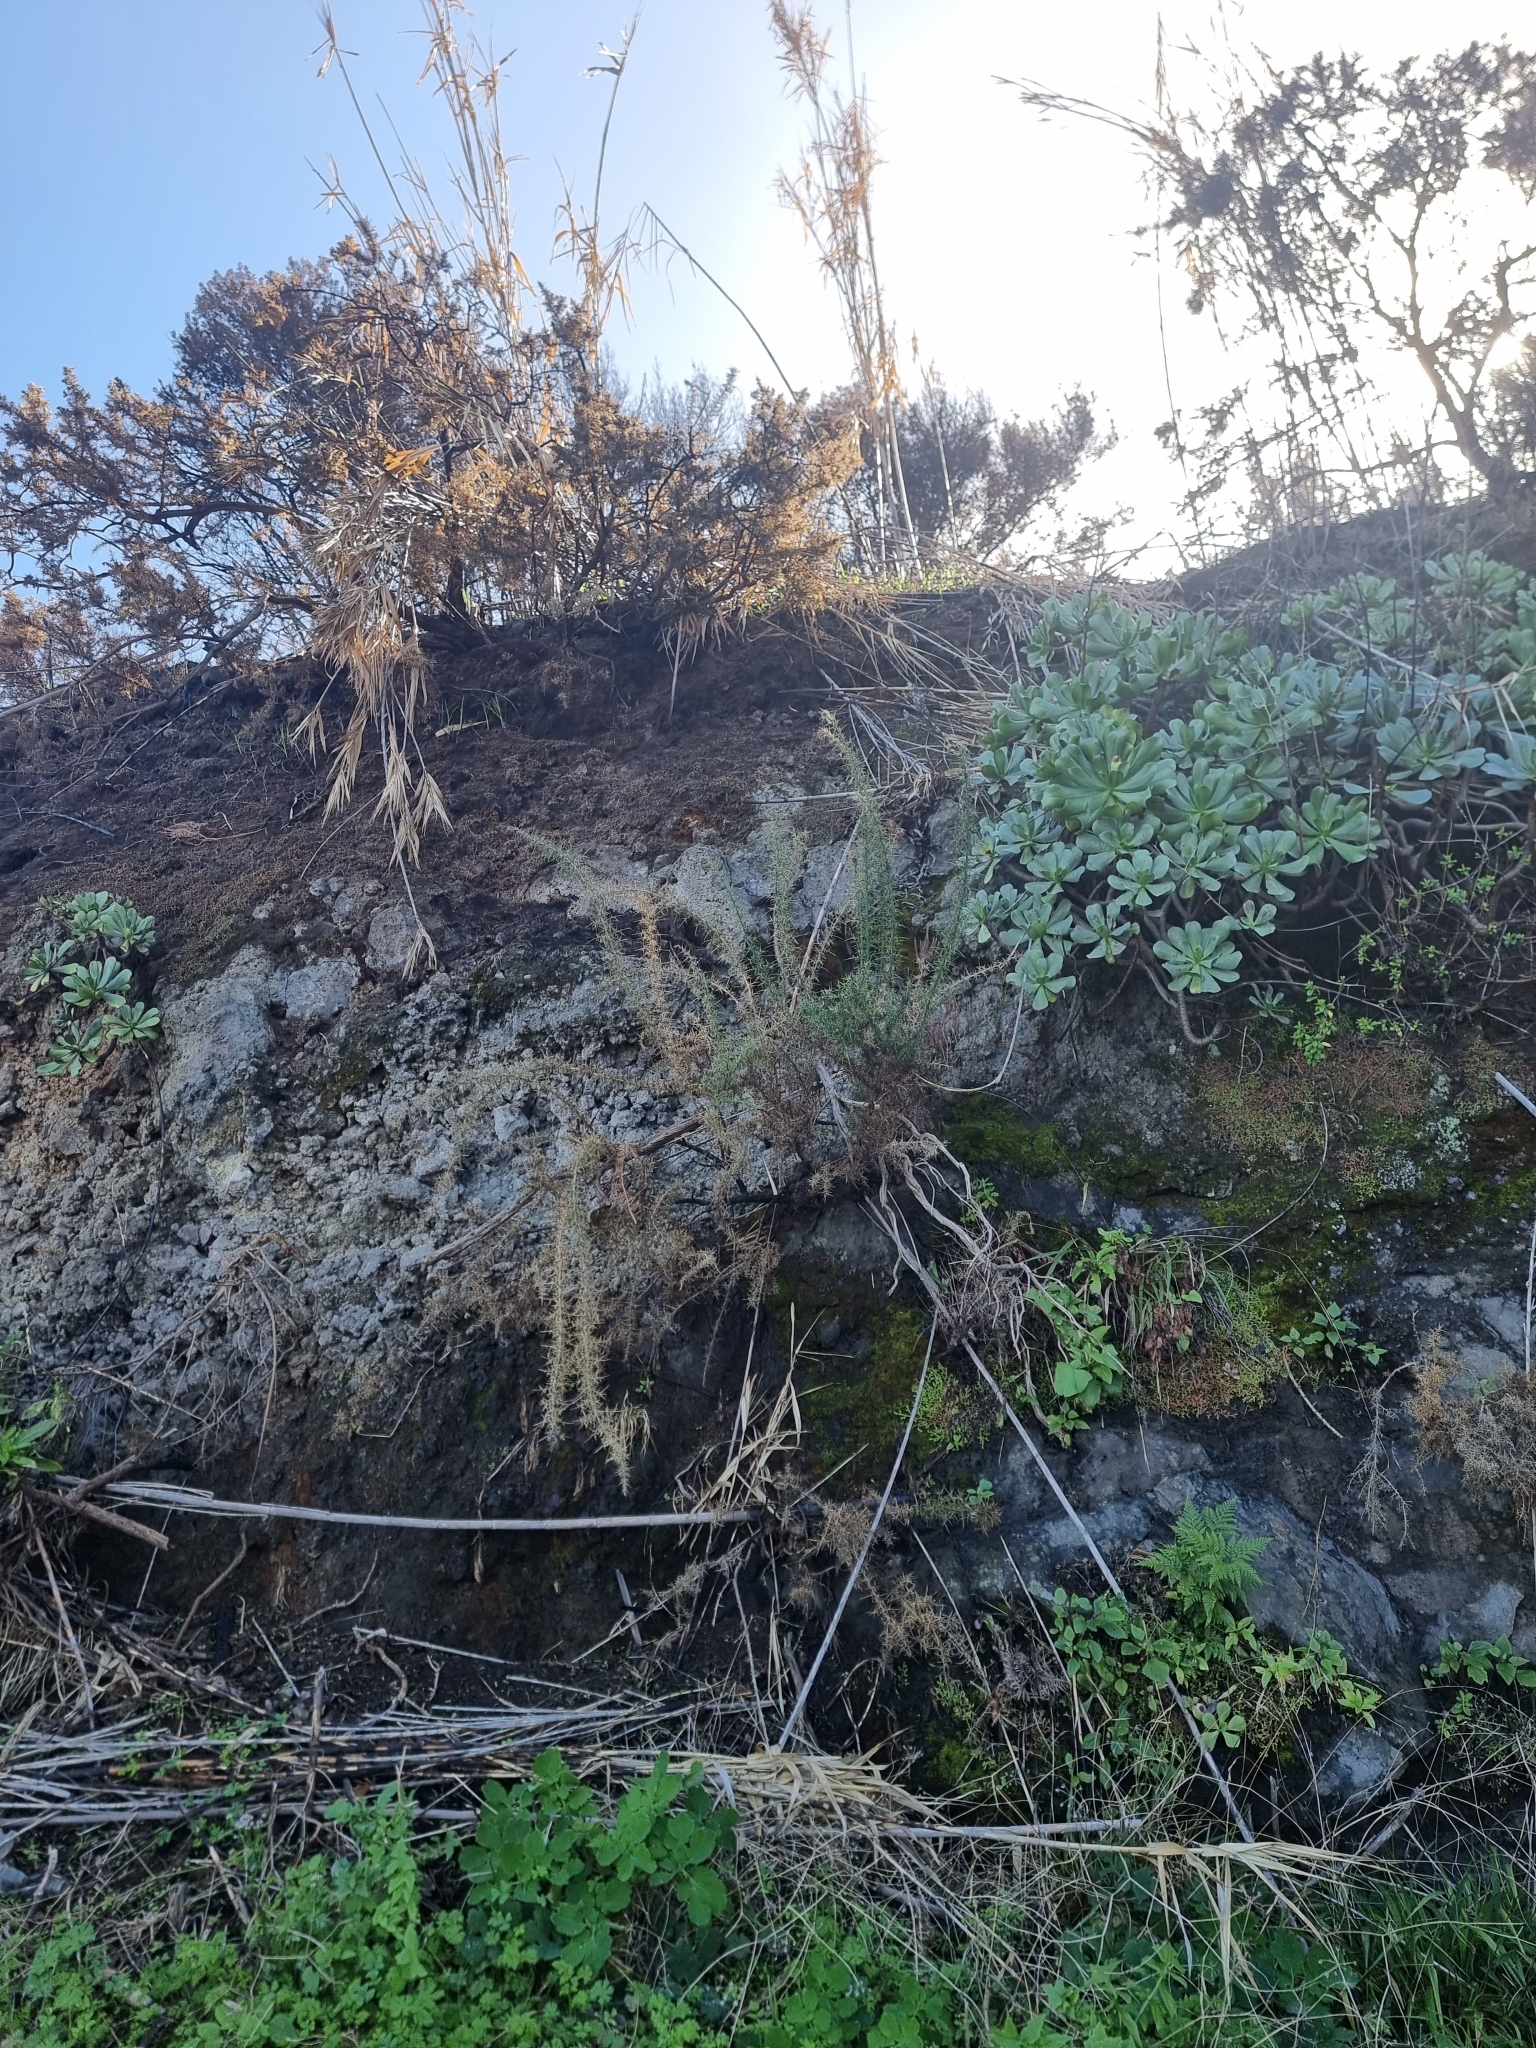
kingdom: Plantae
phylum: Tracheophyta
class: Magnoliopsida
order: Fabales
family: Fabaceae
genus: Ulex
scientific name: Ulex europaeus
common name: Common gorse
